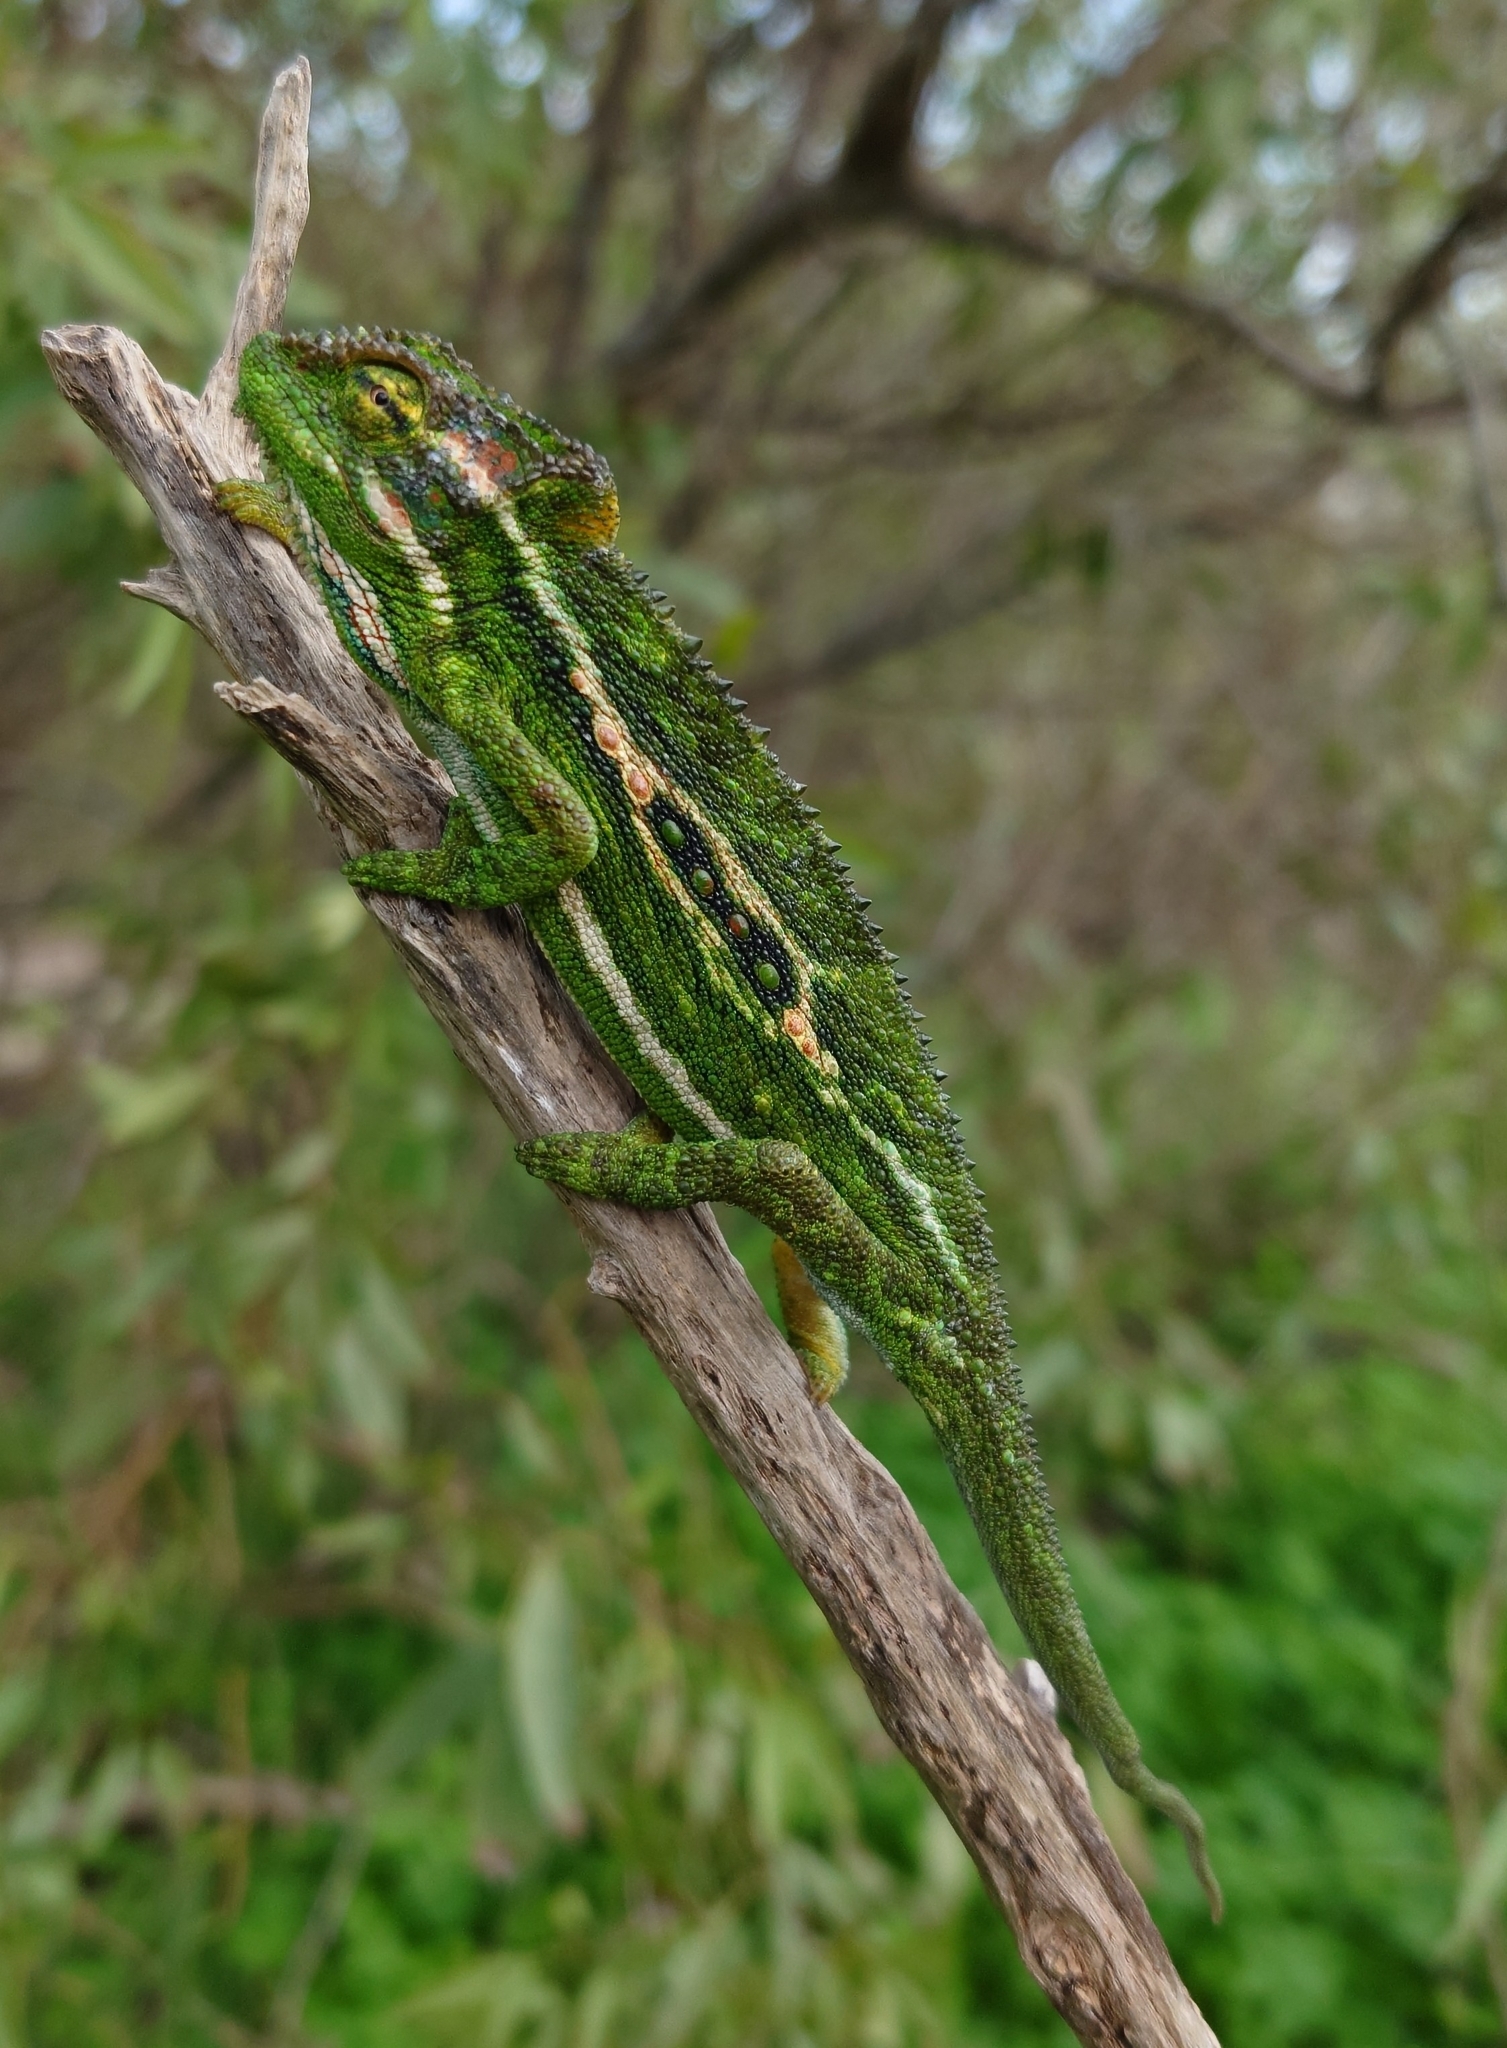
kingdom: Animalia
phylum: Chordata
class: Squamata
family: Chamaeleonidae
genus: Bradypodion
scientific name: Bradypodion pumilum
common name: Cape dwarf chameleon
